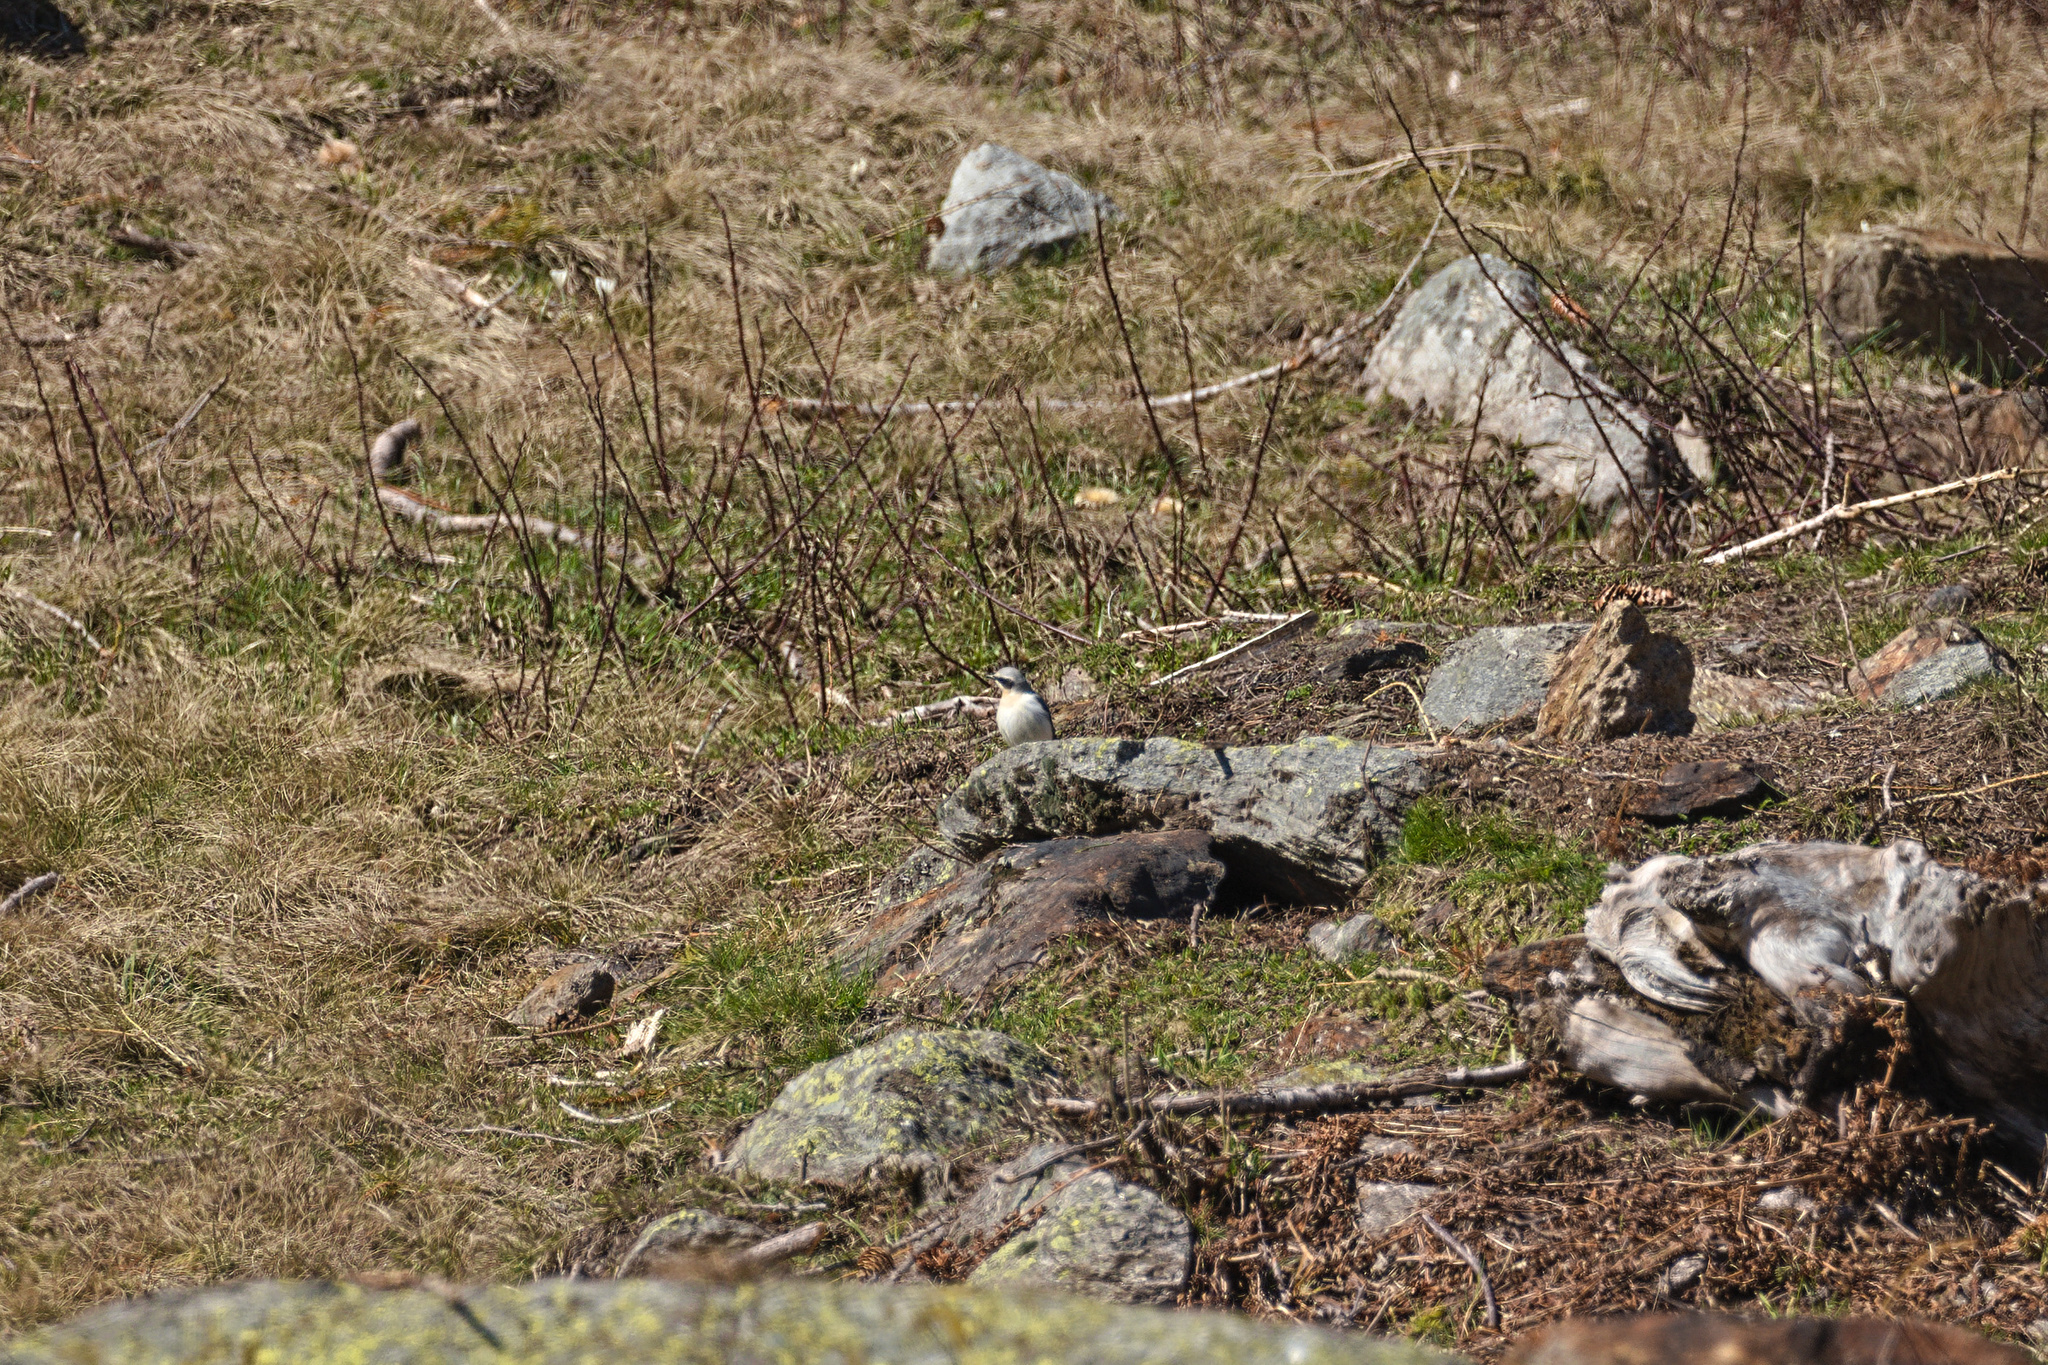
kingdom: Animalia
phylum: Chordata
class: Aves
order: Passeriformes
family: Muscicapidae
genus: Oenanthe
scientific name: Oenanthe oenanthe
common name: Northern wheatear
